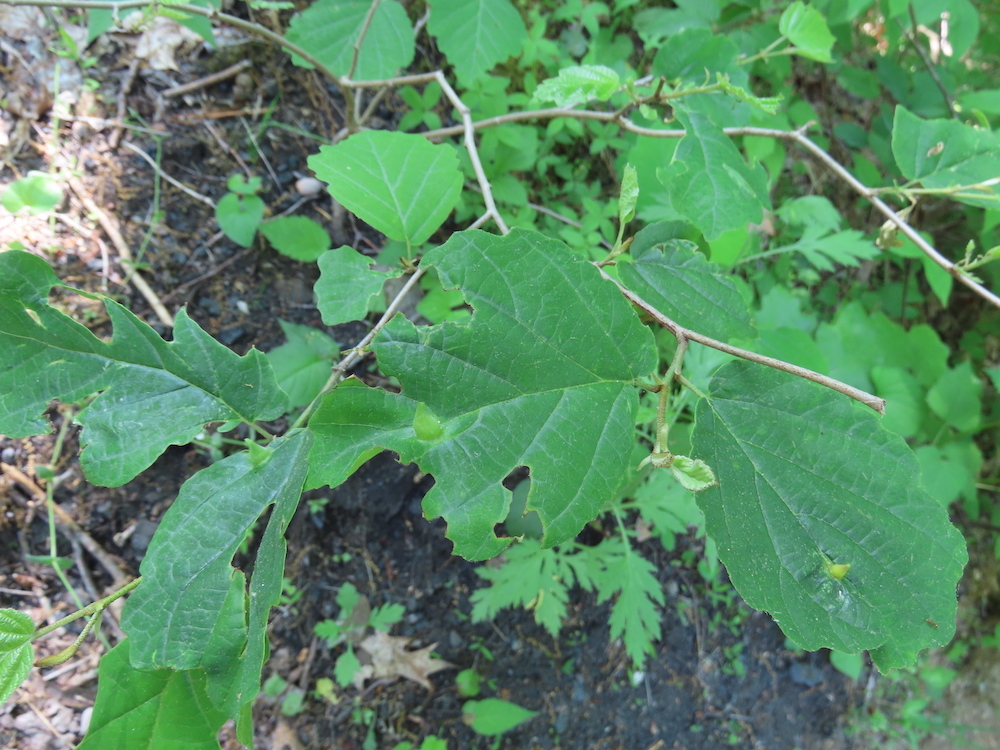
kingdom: Animalia
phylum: Arthropoda
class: Insecta
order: Hemiptera
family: Aphididae
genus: Hormaphis
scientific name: Hormaphis hamamelidis
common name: Witch-hazel cone gall aphid
